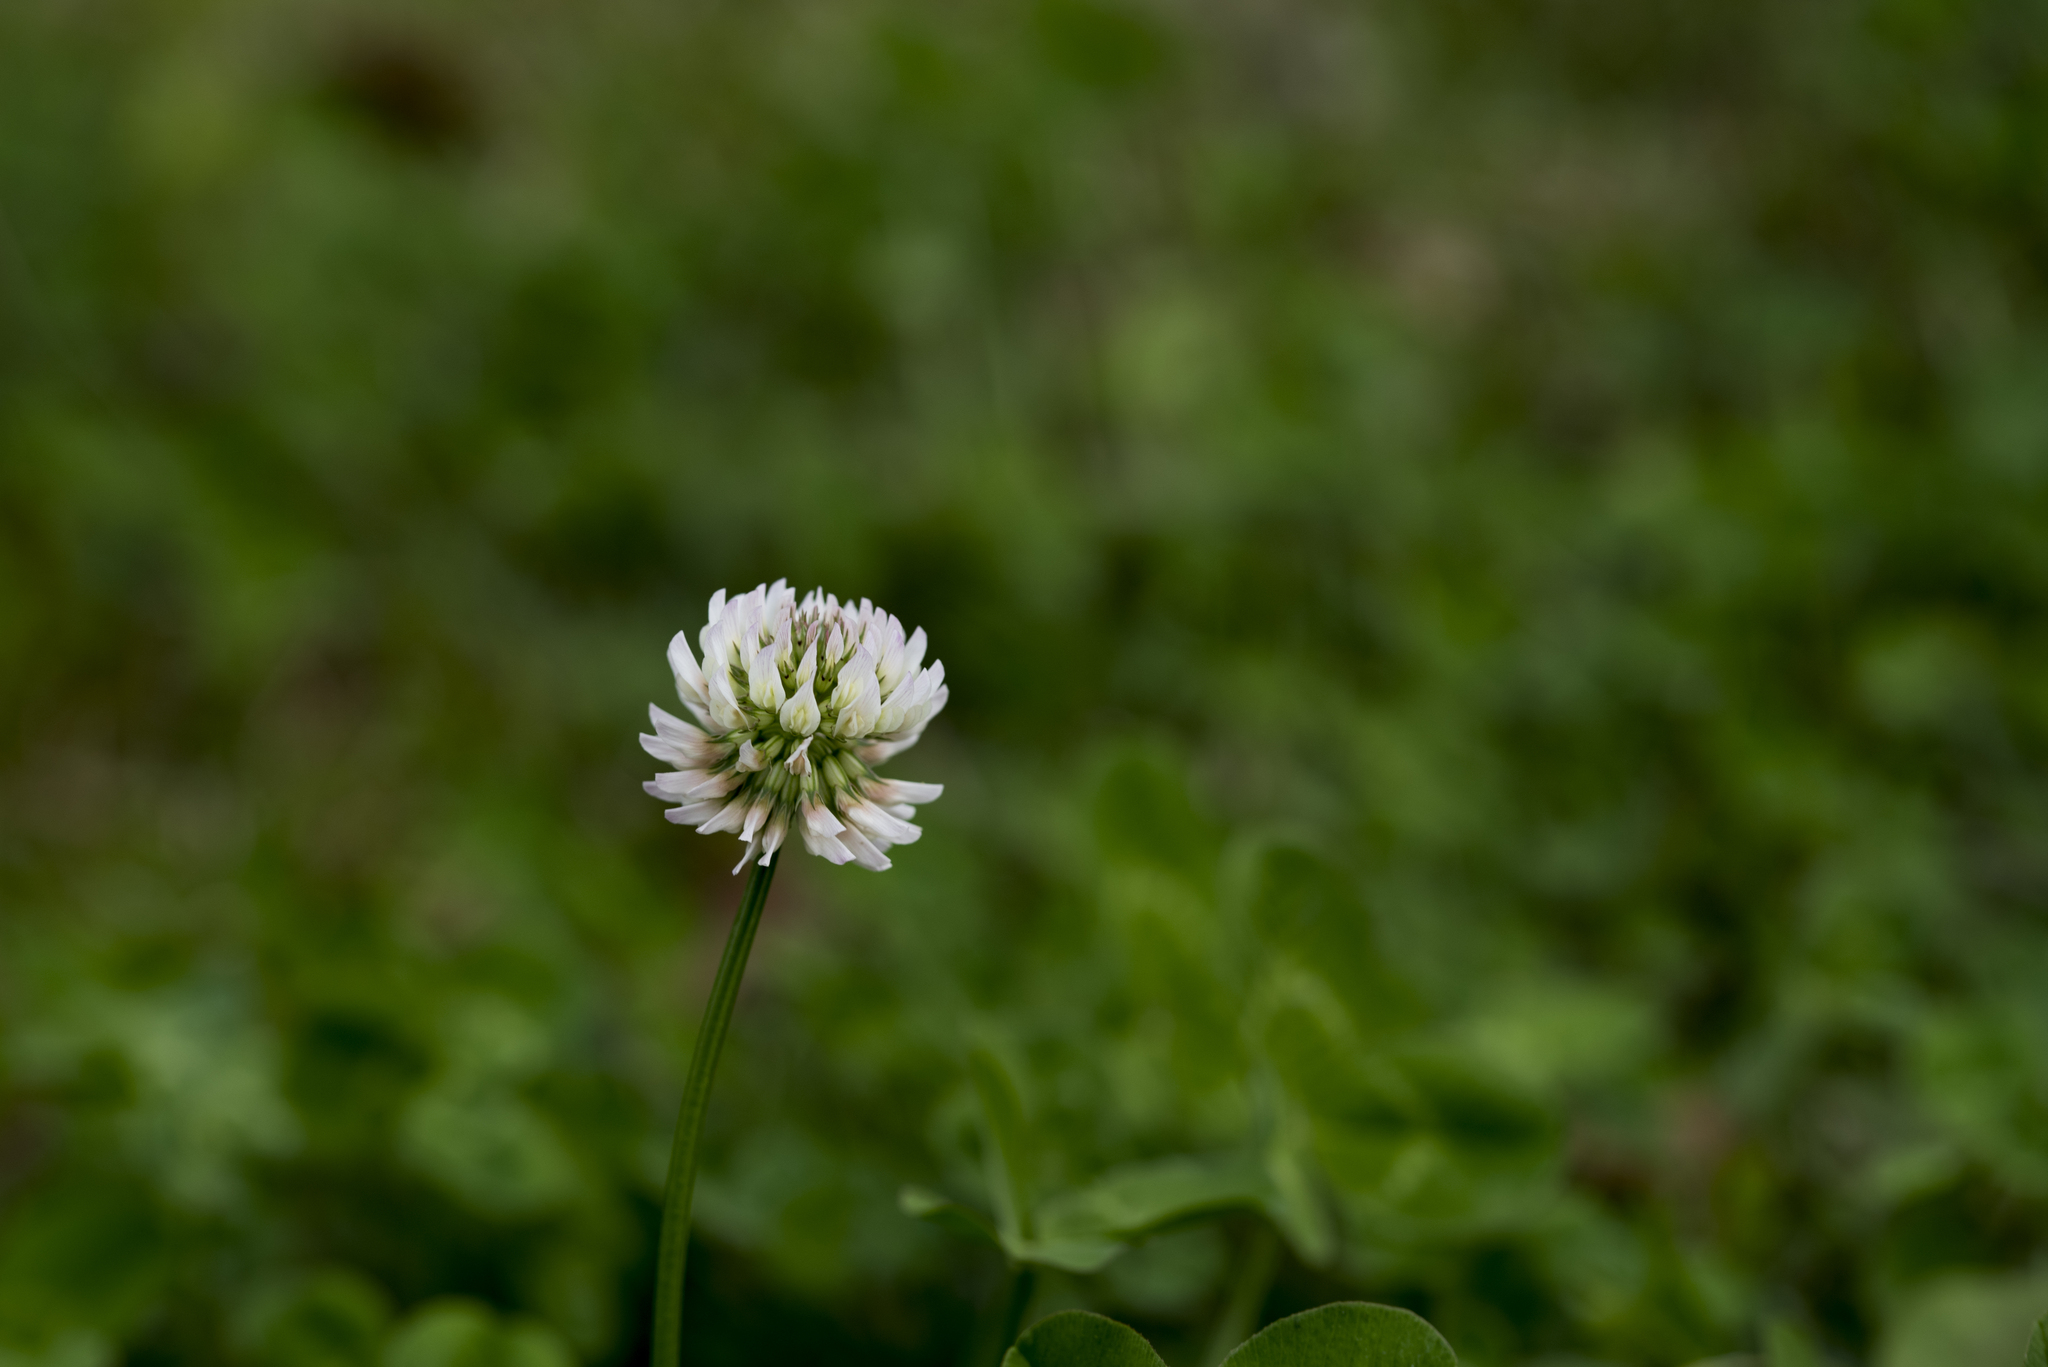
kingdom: Plantae
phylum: Tracheophyta
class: Magnoliopsida
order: Fabales
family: Fabaceae
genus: Trifolium
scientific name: Trifolium repens
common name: White clover
